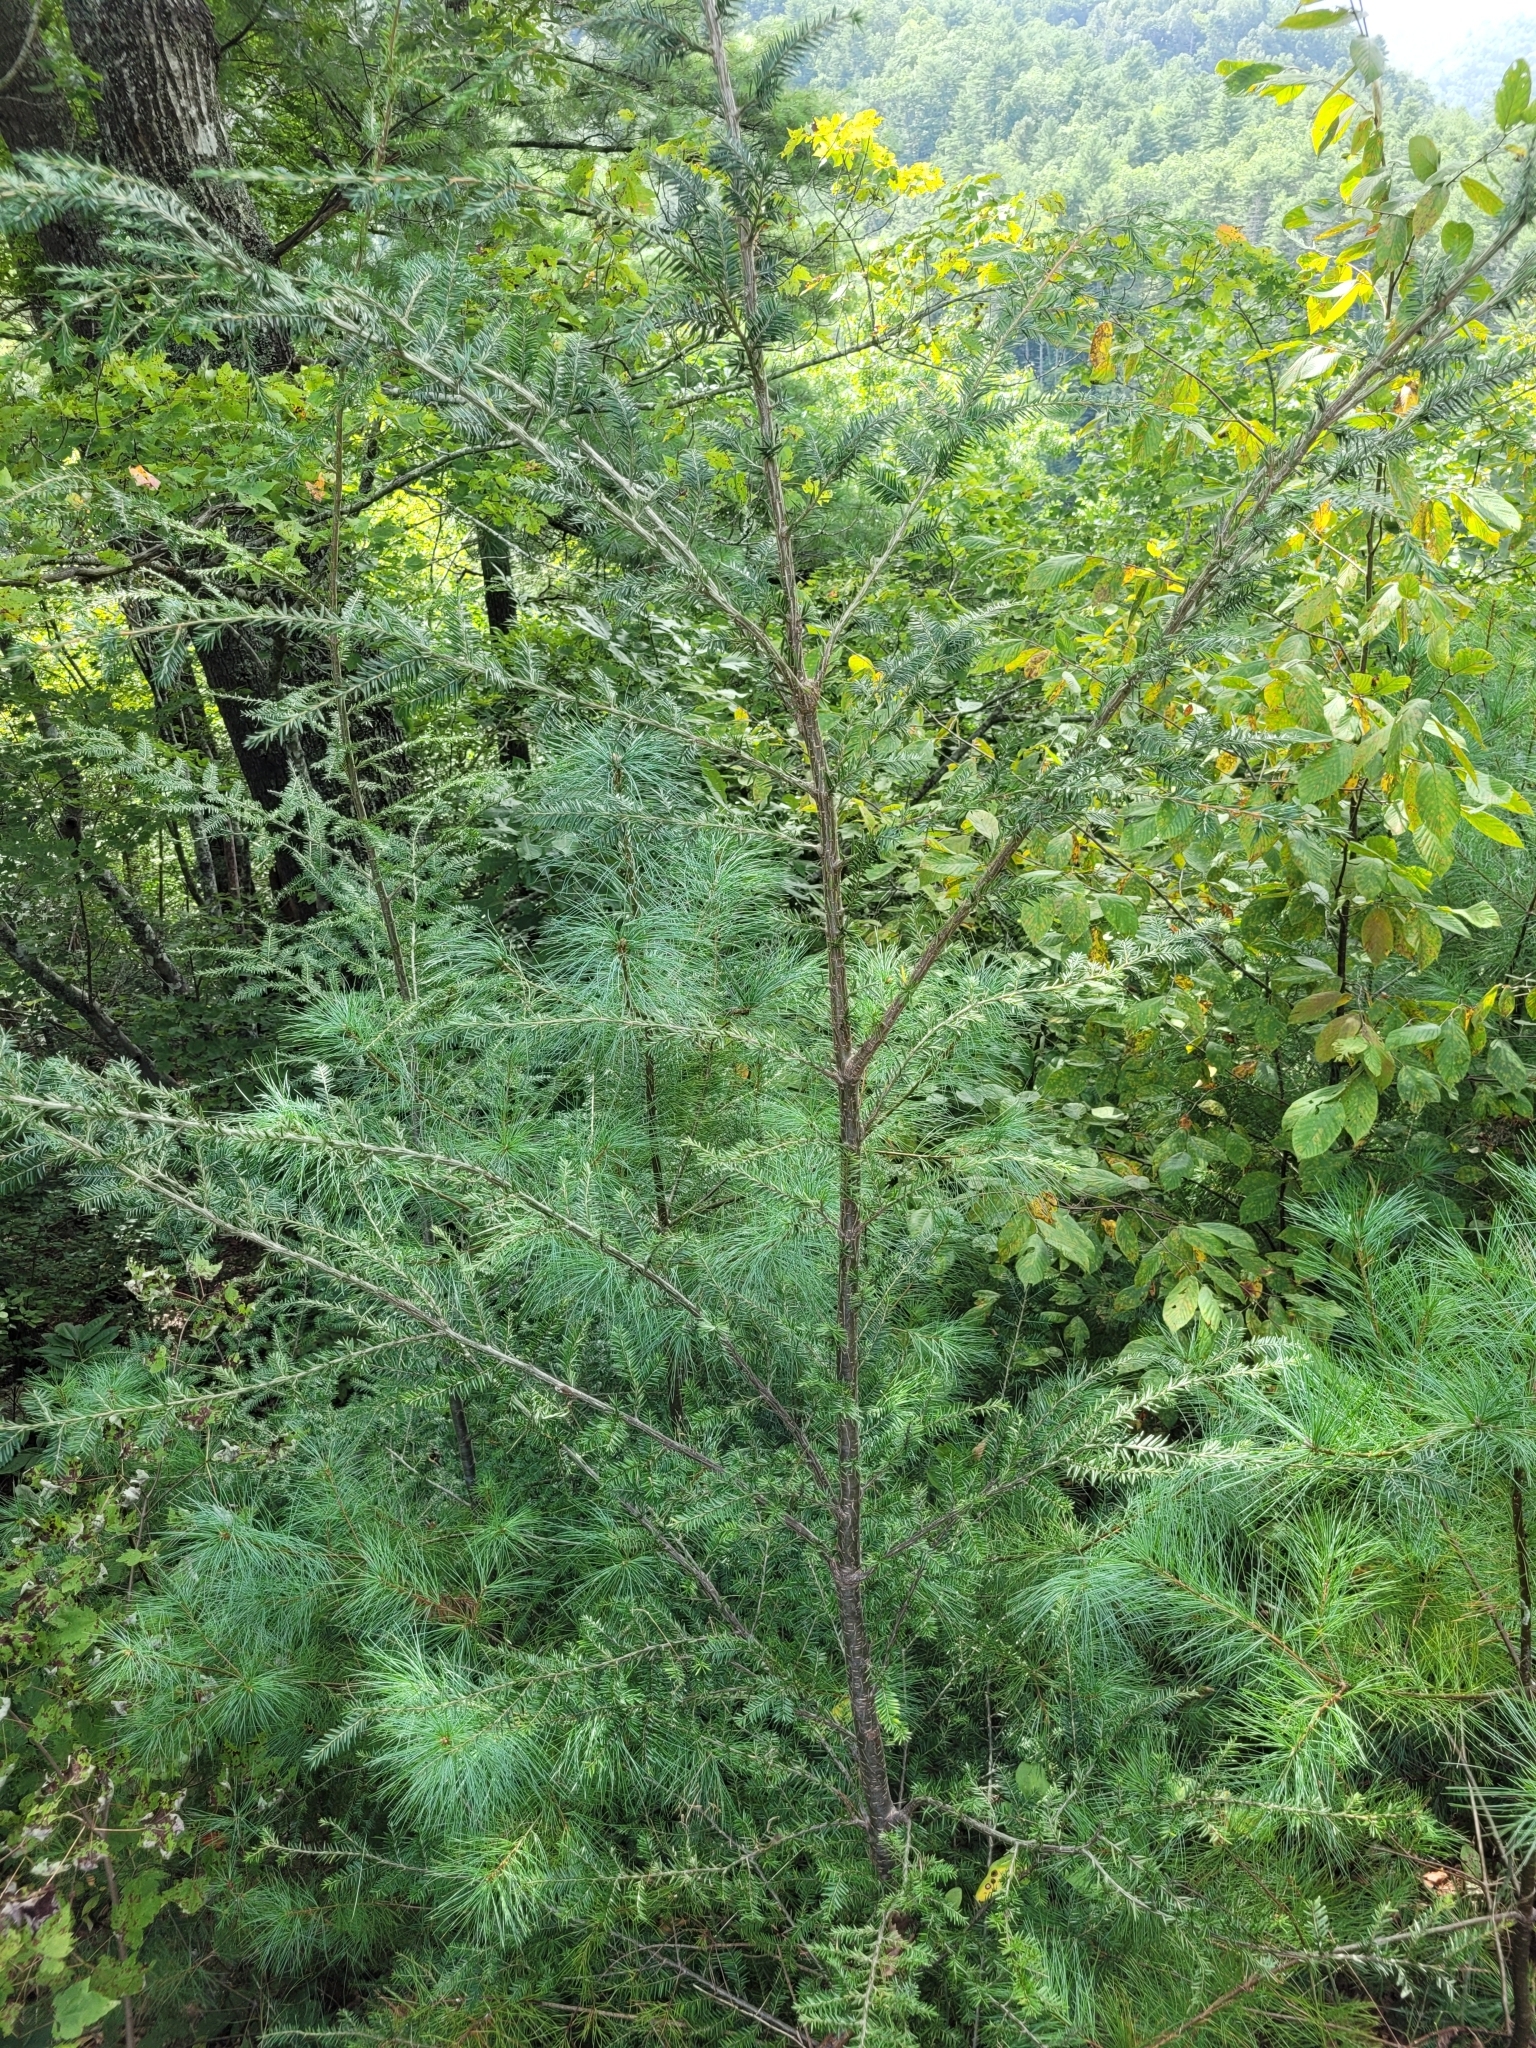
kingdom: Plantae
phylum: Tracheophyta
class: Pinopsida
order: Pinales
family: Pinaceae
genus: Tsuga
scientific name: Tsuga canadensis
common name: Eastern hemlock
